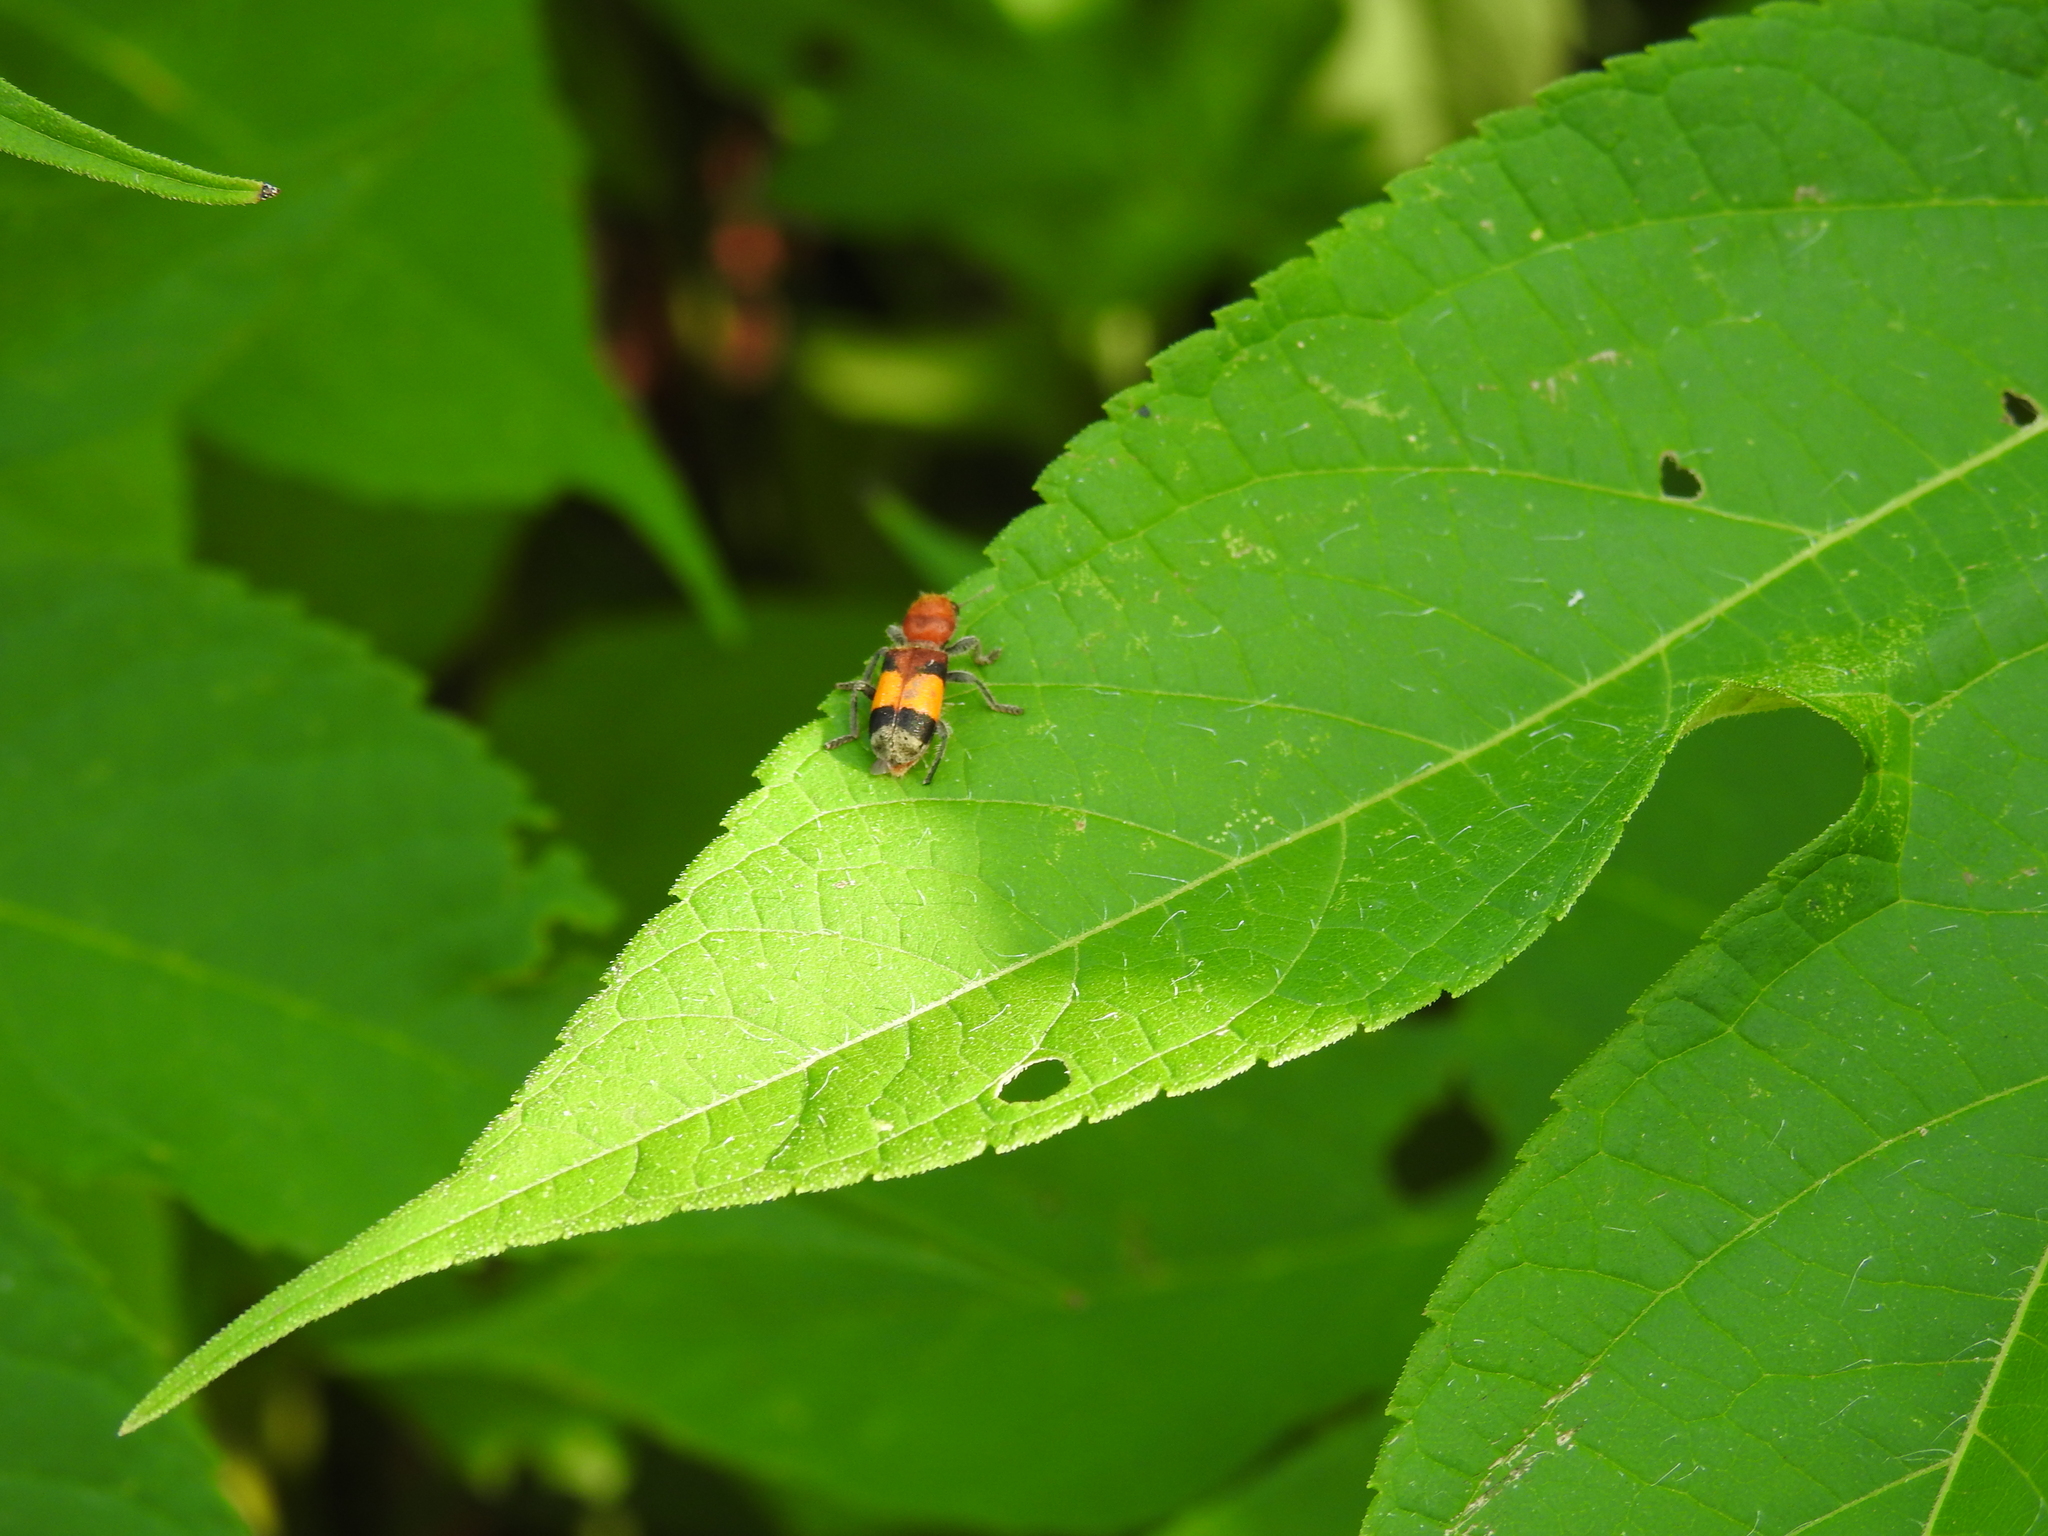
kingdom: Animalia
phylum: Arthropoda
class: Insecta
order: Coleoptera
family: Cleridae
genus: Enoclerus
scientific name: Enoclerus ichneumoneus
